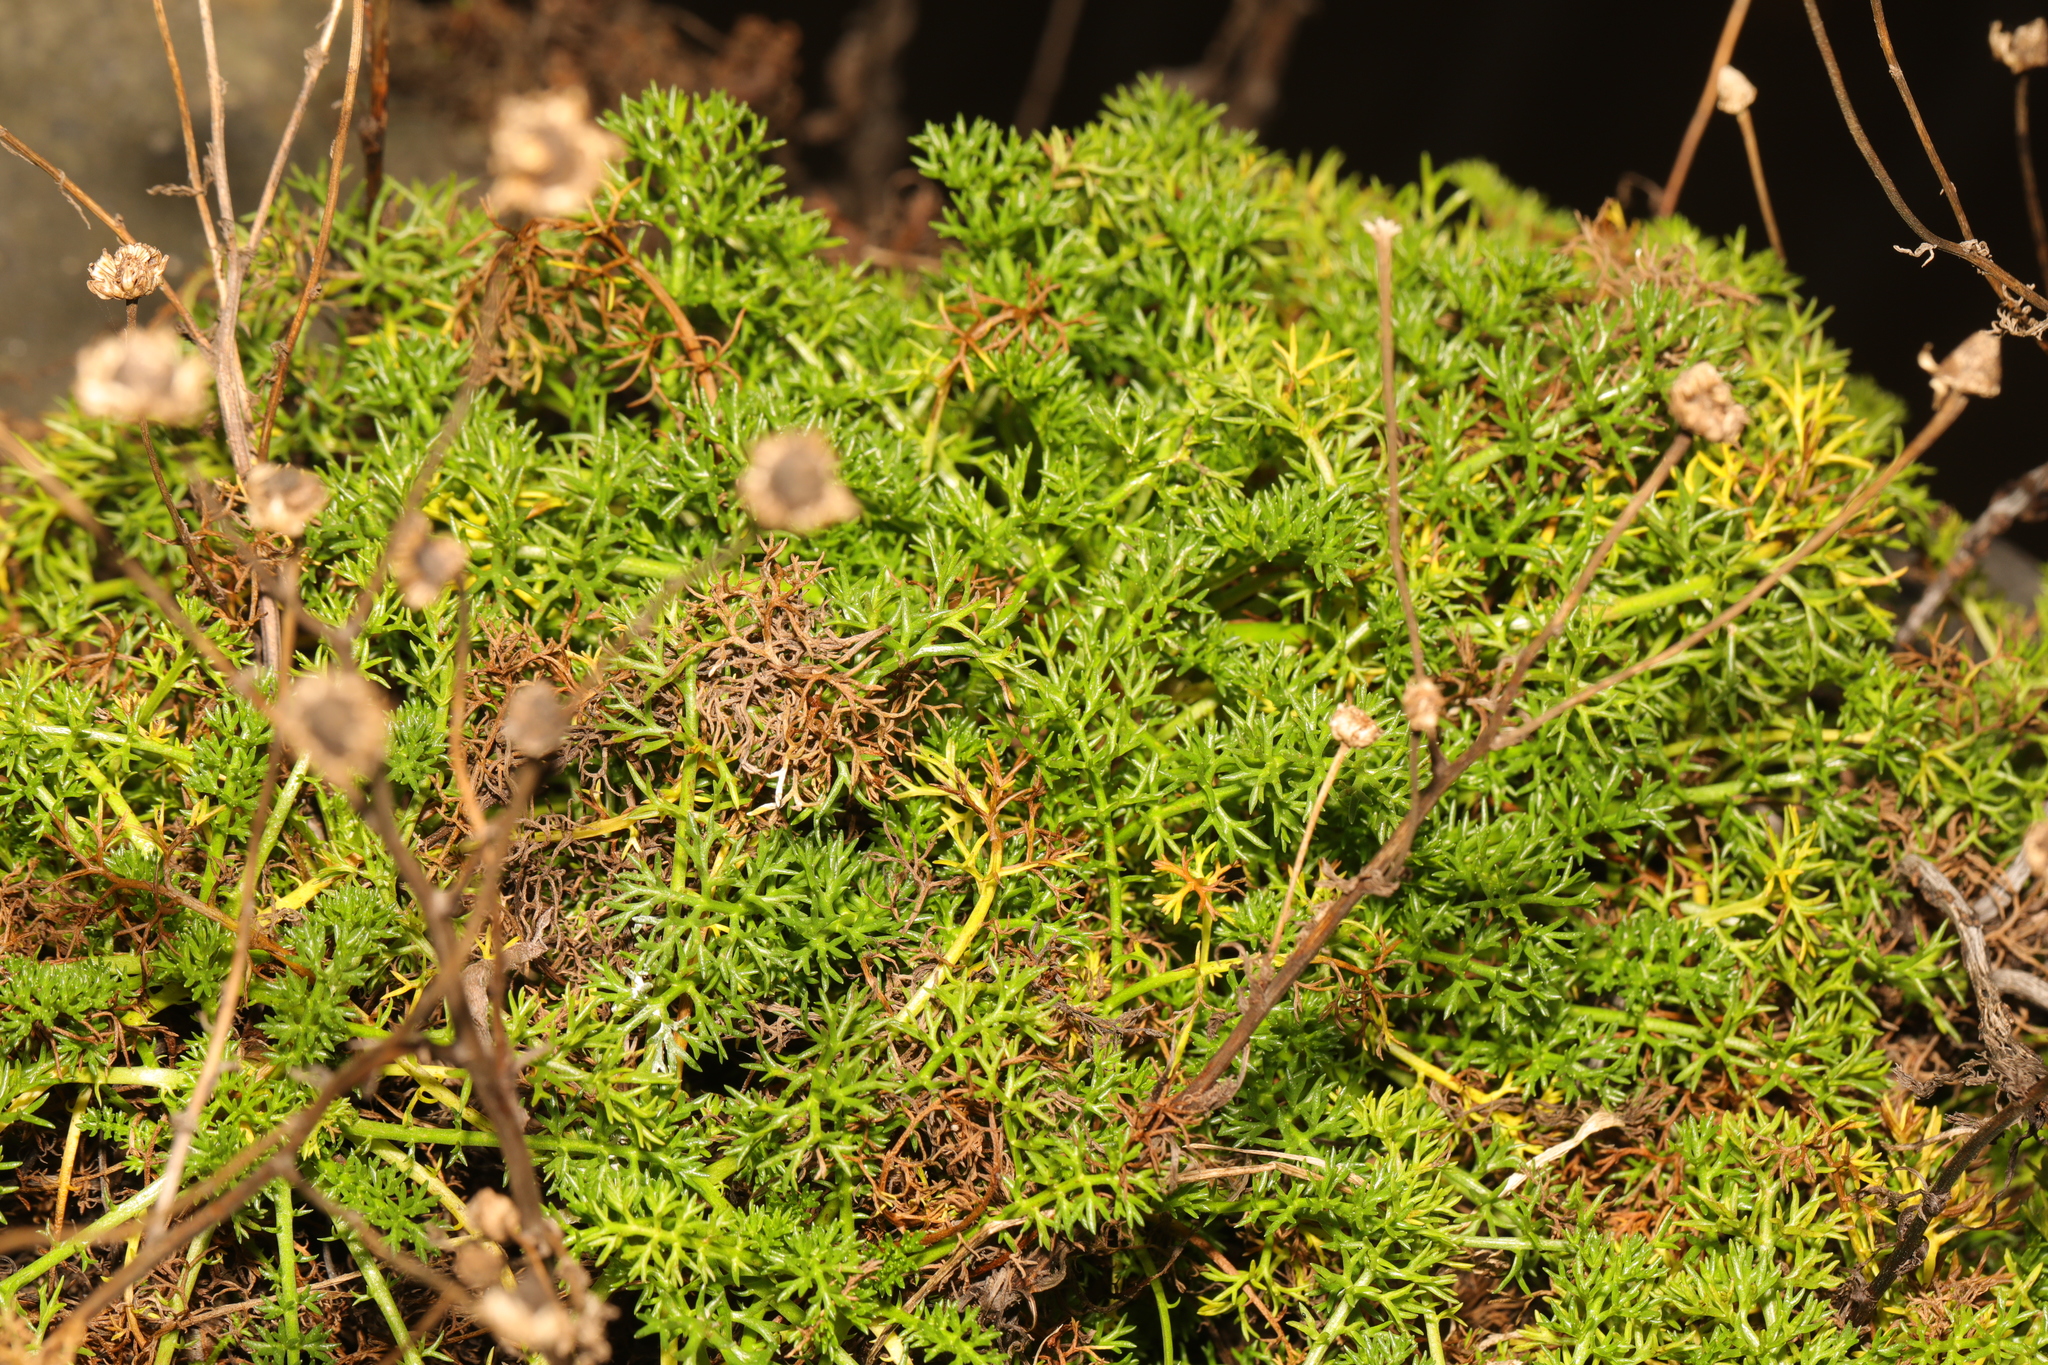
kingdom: Plantae
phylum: Tracheophyta
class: Magnoliopsida
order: Asterales
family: Asteraceae
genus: Tripleurospermum
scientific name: Tripleurospermum maritimum
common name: Sea mayweed
